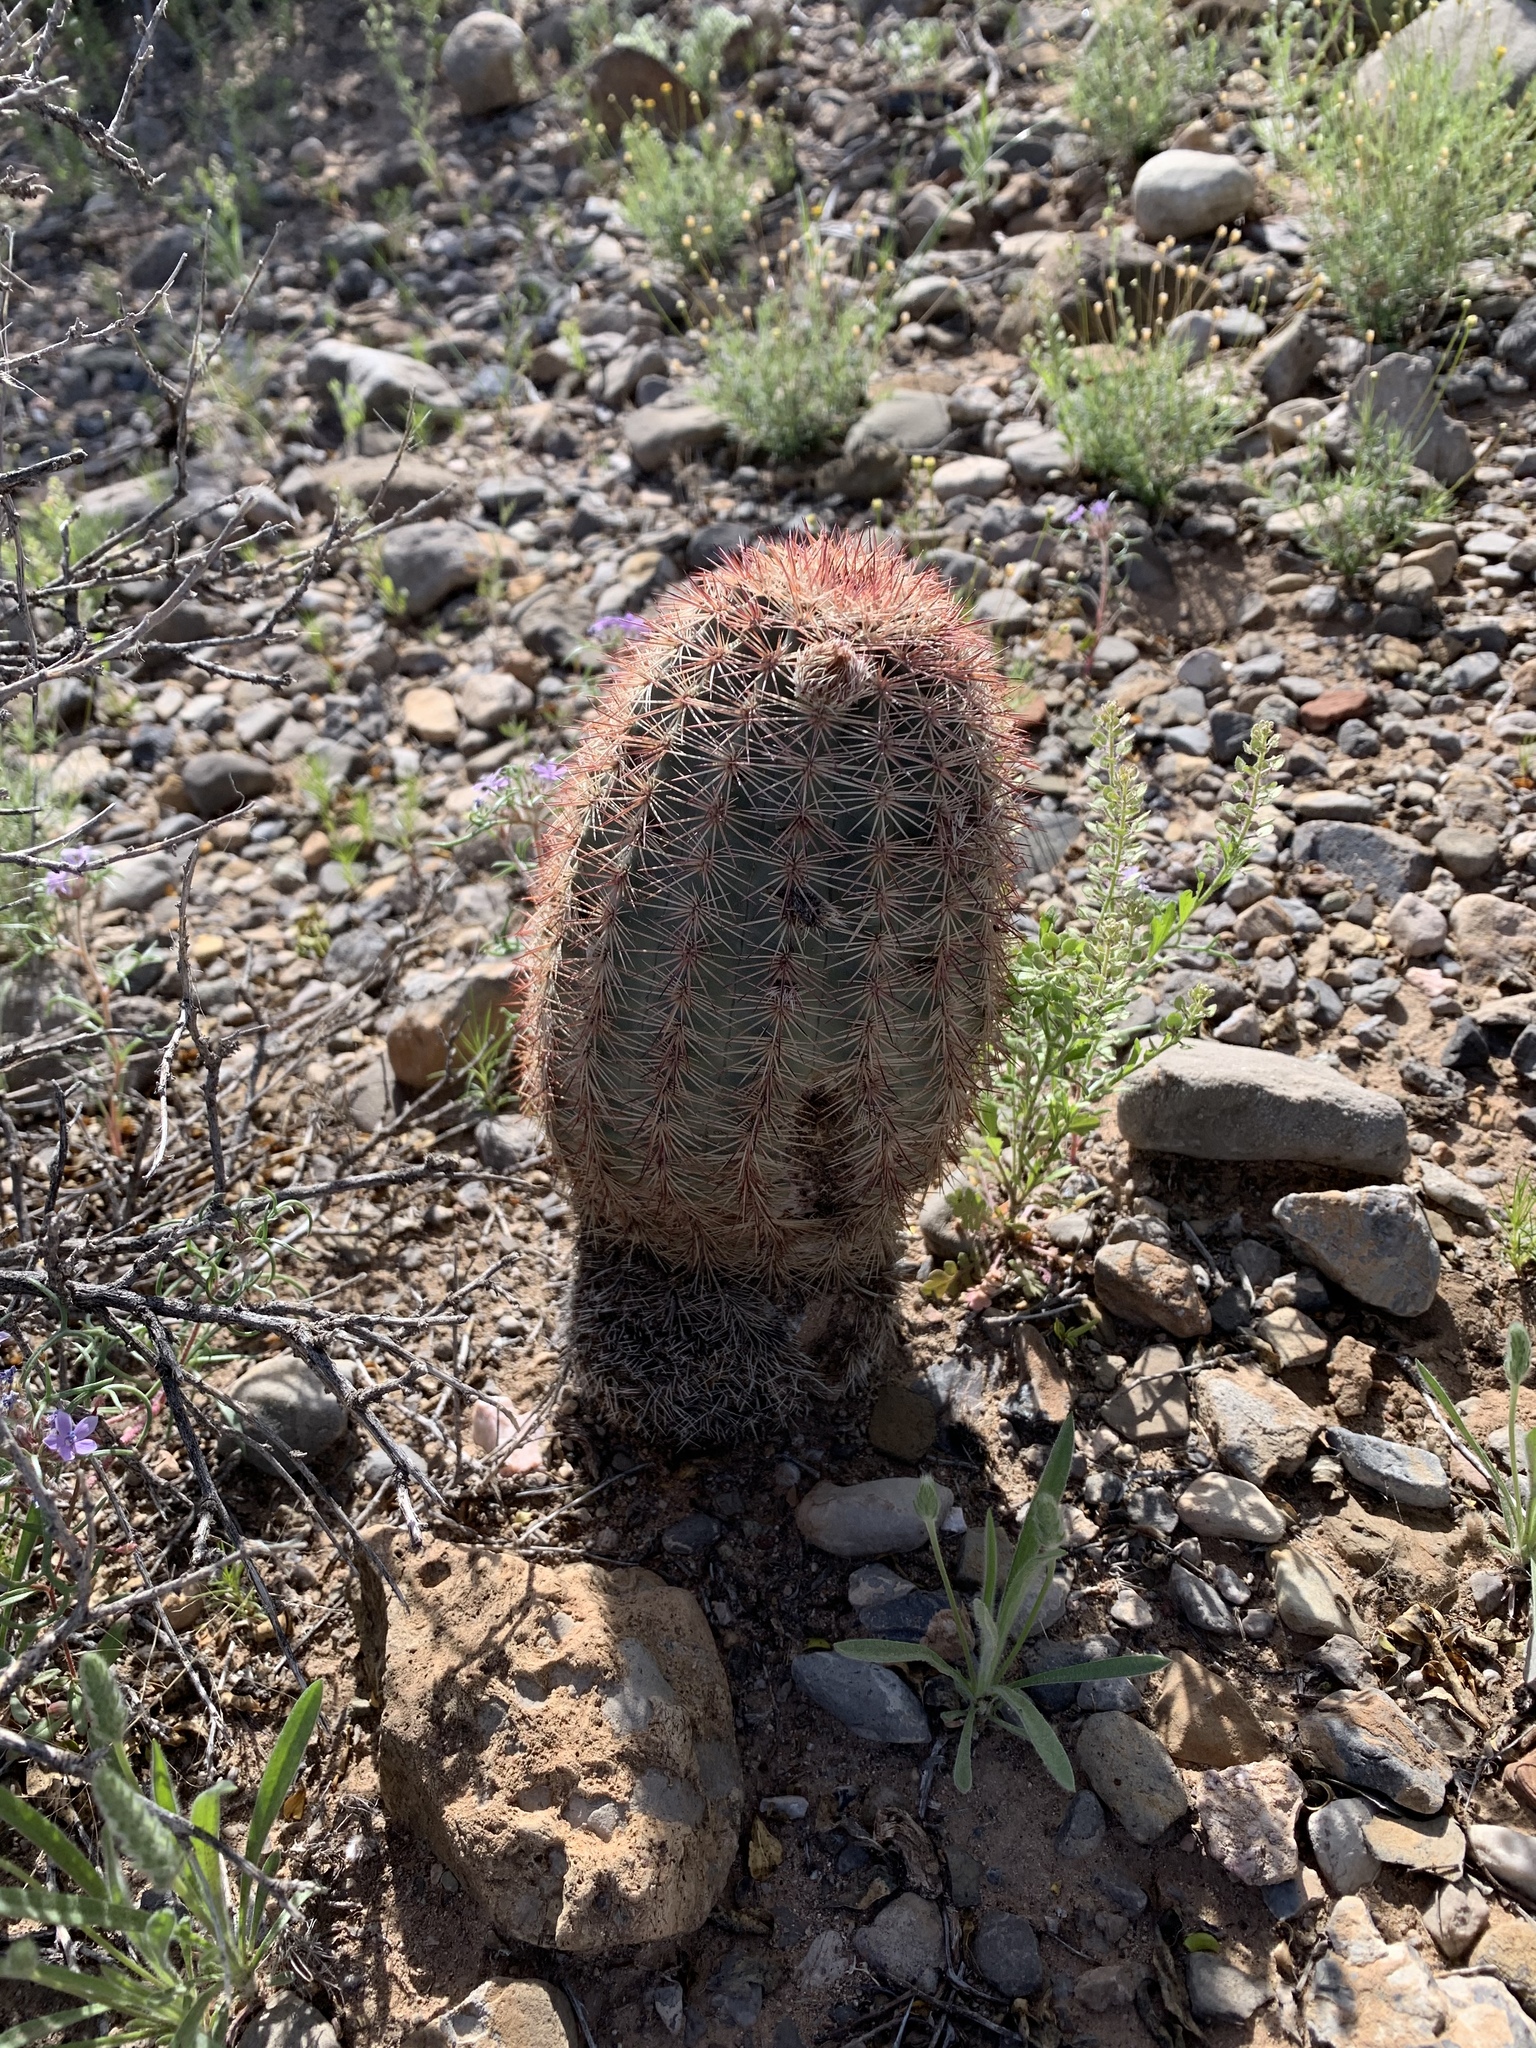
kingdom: Plantae
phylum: Tracheophyta
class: Magnoliopsida
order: Caryophyllales
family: Cactaceae
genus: Echinocereus
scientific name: Echinocereus dasyacanthus
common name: Spiny hedgehog cactus
